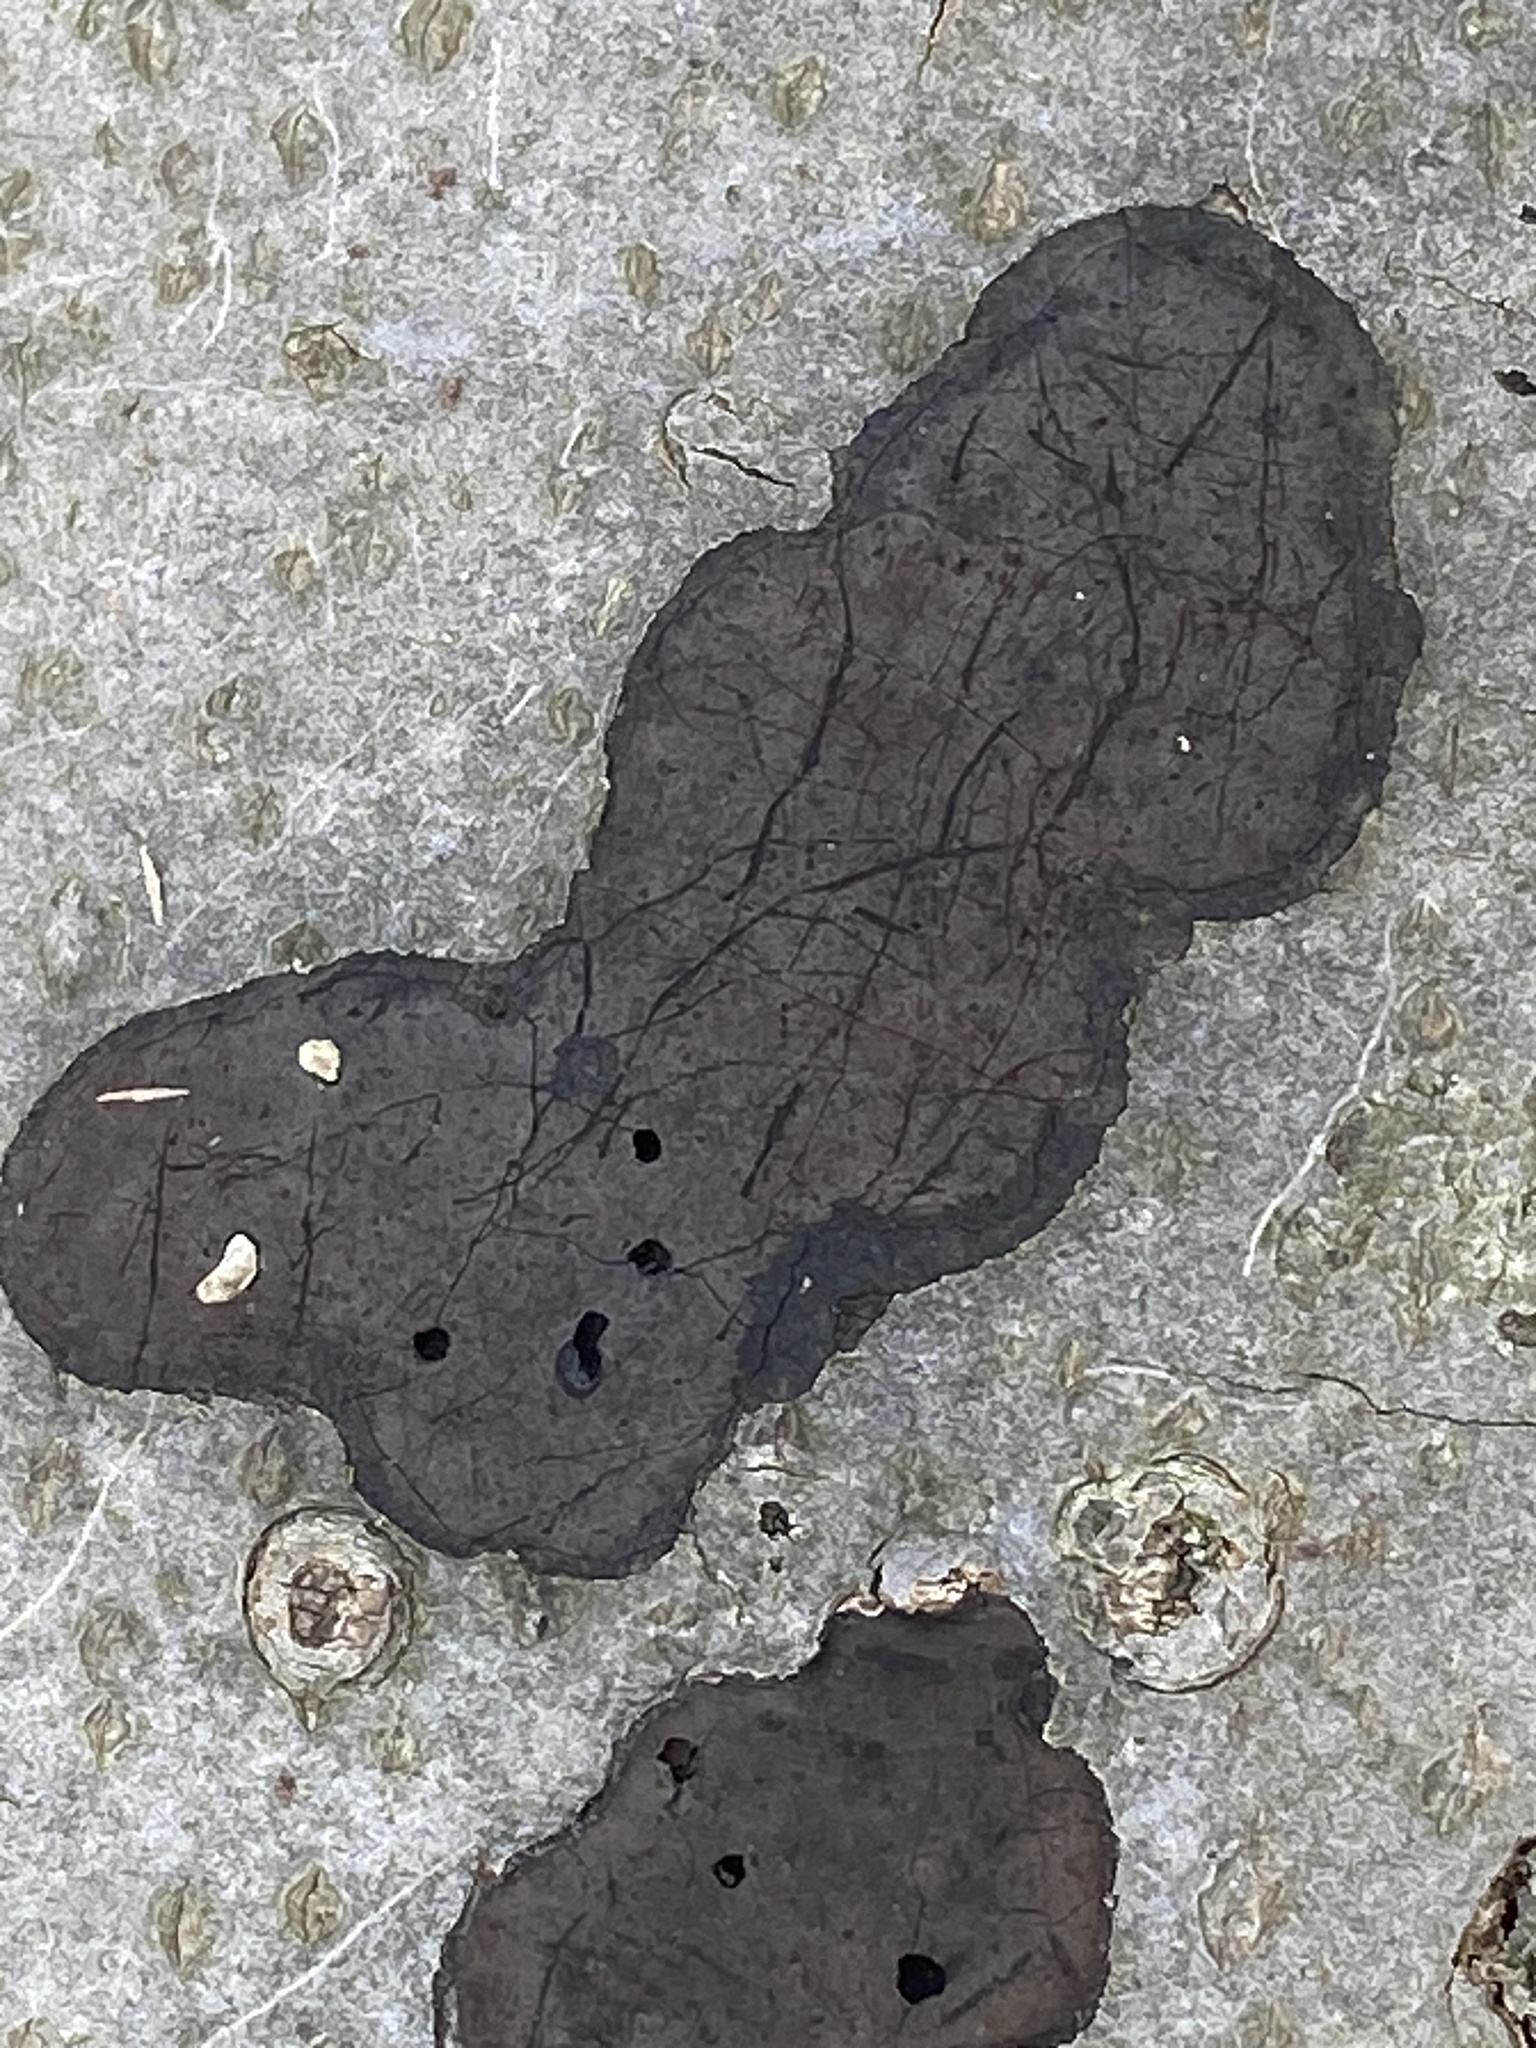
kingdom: Fungi
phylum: Ascomycota
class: Sordariomycetes
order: Xylariales
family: Graphostromataceae
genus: Camillea
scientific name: Camillea punctulata
